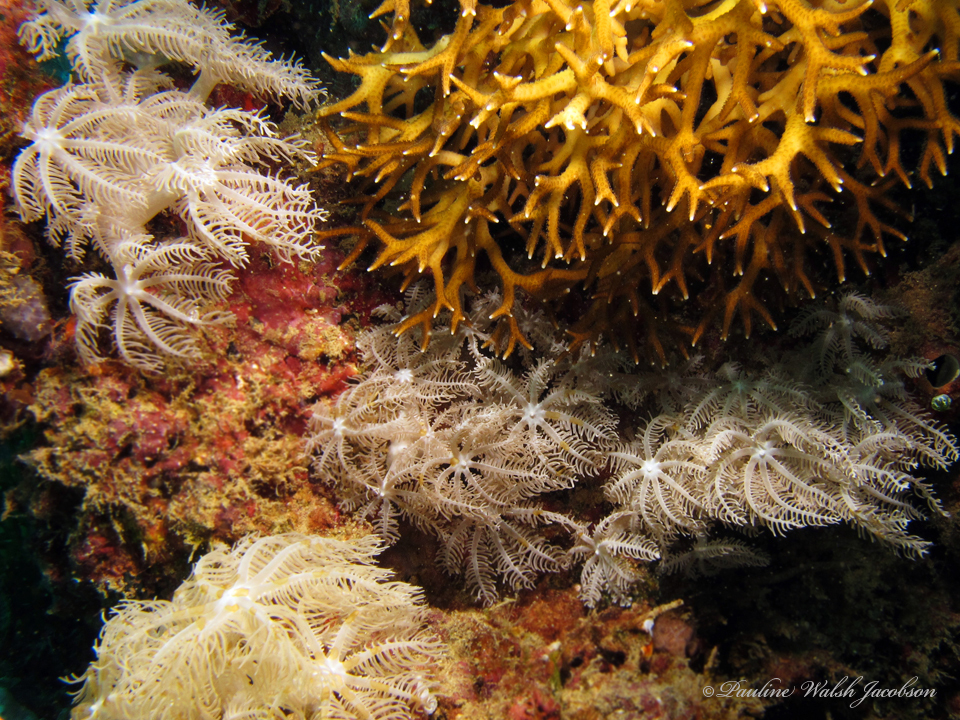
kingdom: Animalia
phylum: Cnidaria
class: Anthozoa
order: Scleractinia
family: Pocilloporidae
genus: Seriatopora
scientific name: Seriatopora hystrix
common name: Bush coral
